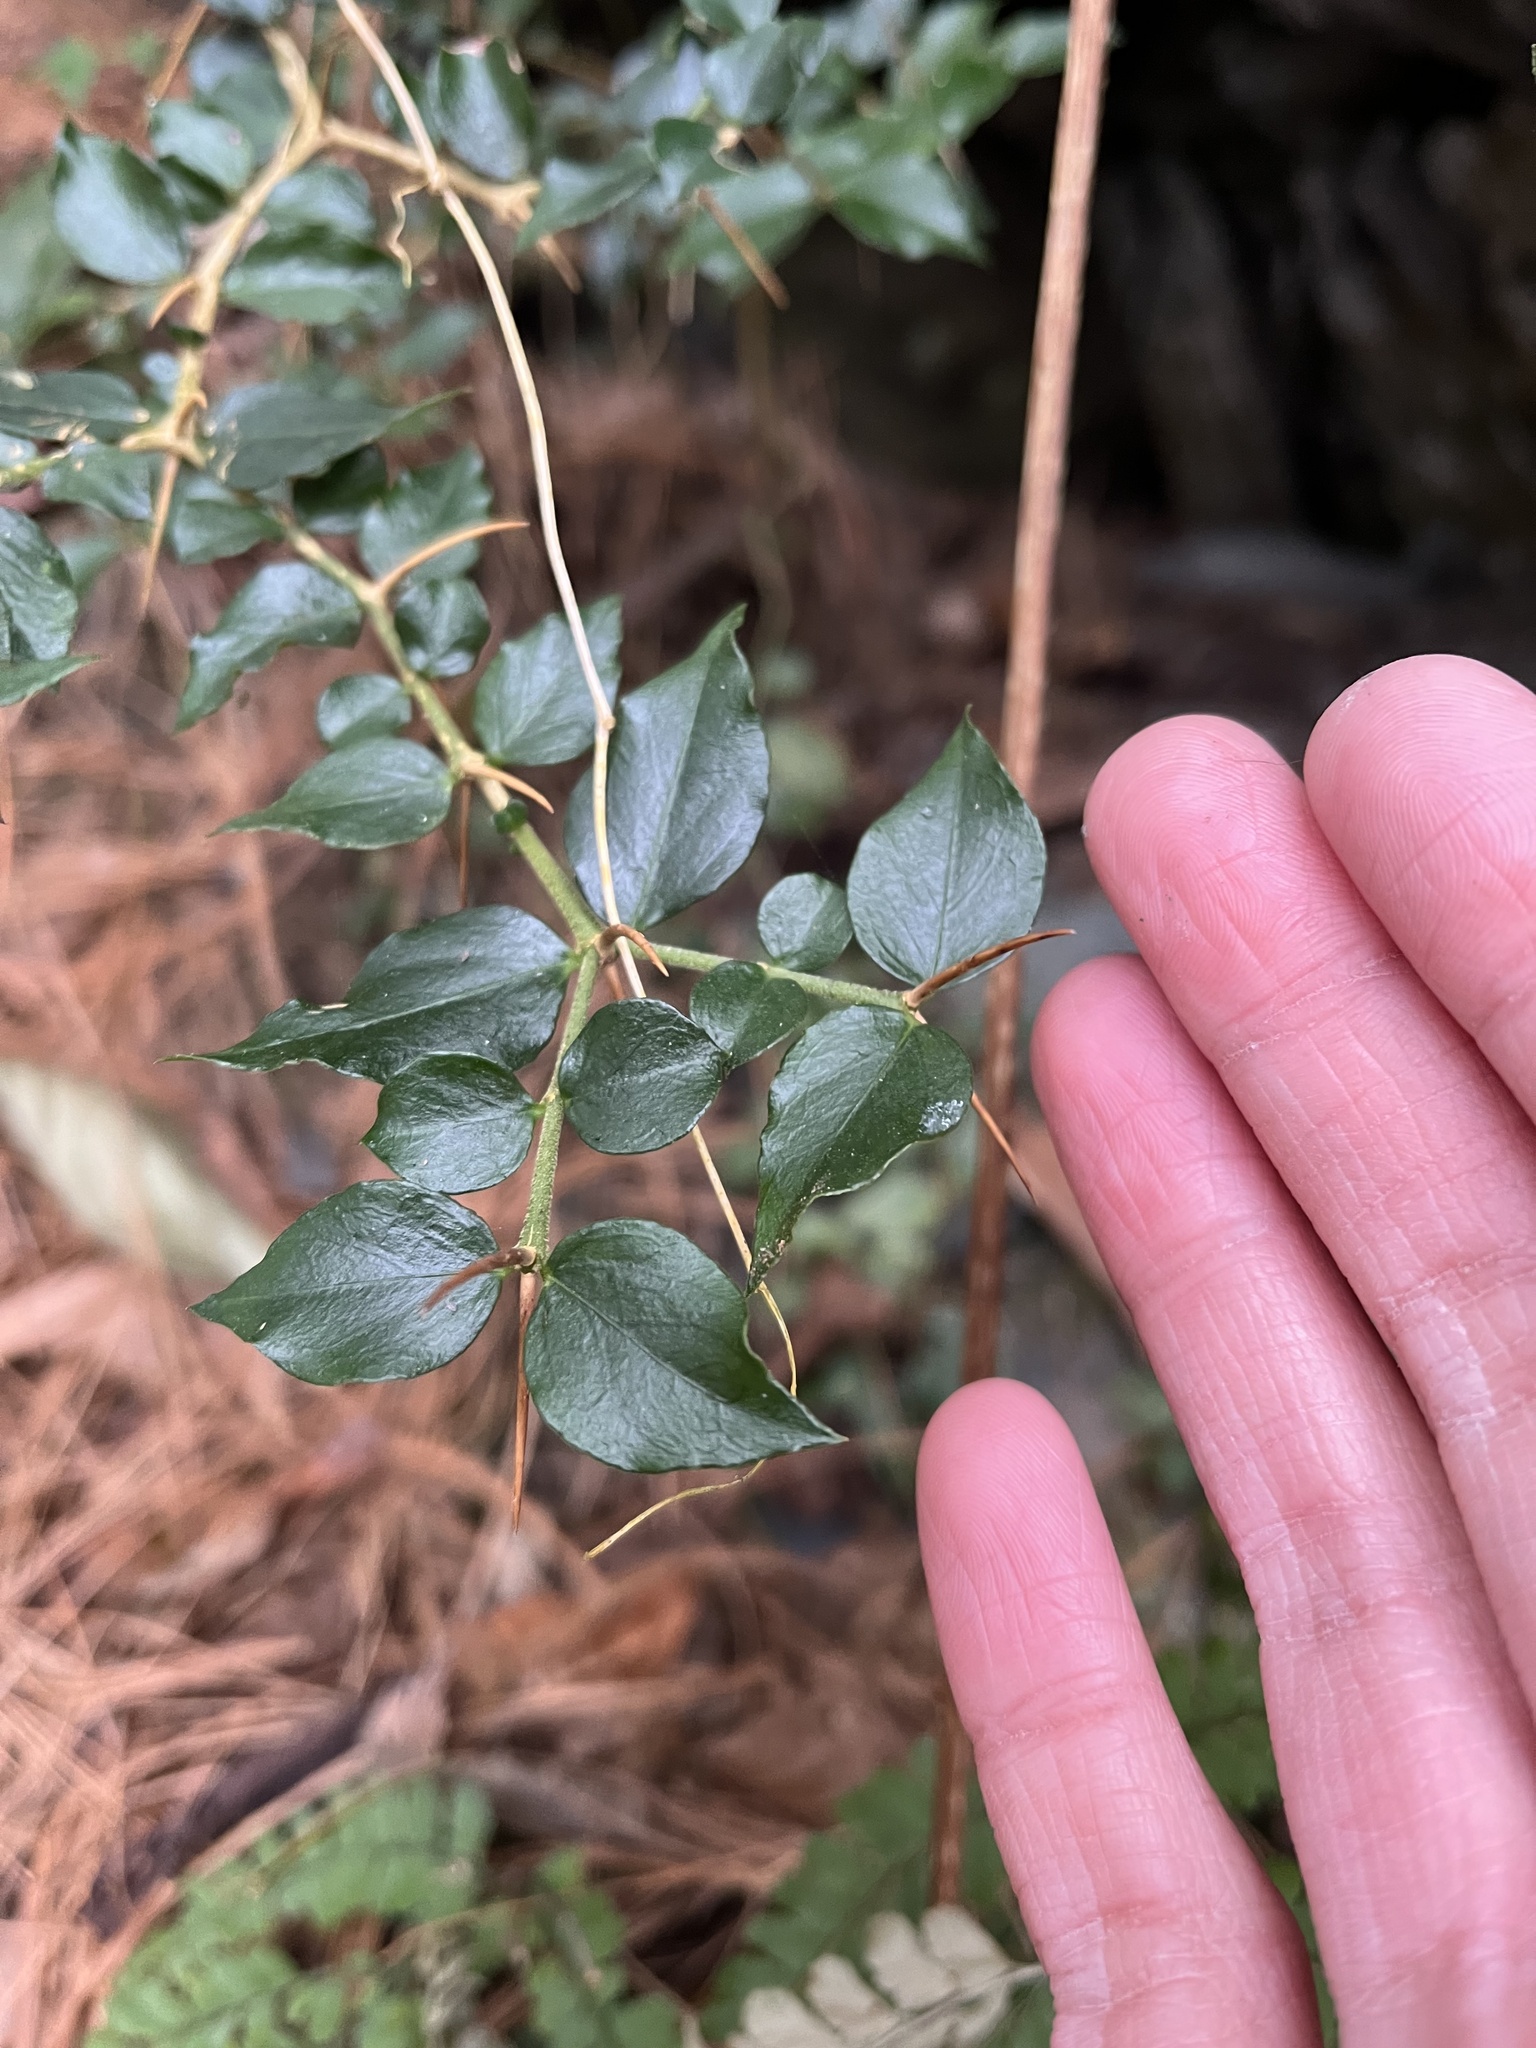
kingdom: Plantae
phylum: Tracheophyta
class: Magnoliopsida
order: Gentianales
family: Rubiaceae
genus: Damnacanthus
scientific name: Damnacanthus indicus
